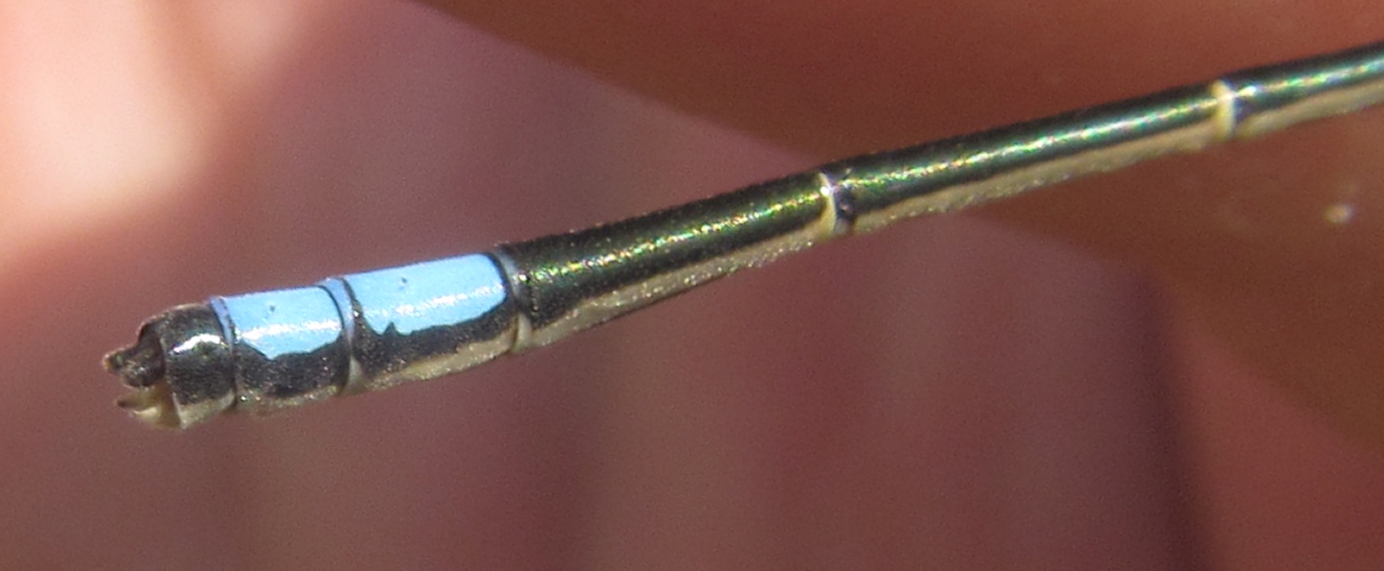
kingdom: Animalia
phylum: Arthropoda
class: Insecta
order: Odonata
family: Coenagrionidae
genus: Pseudagrion
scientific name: Pseudagrion spernatum
